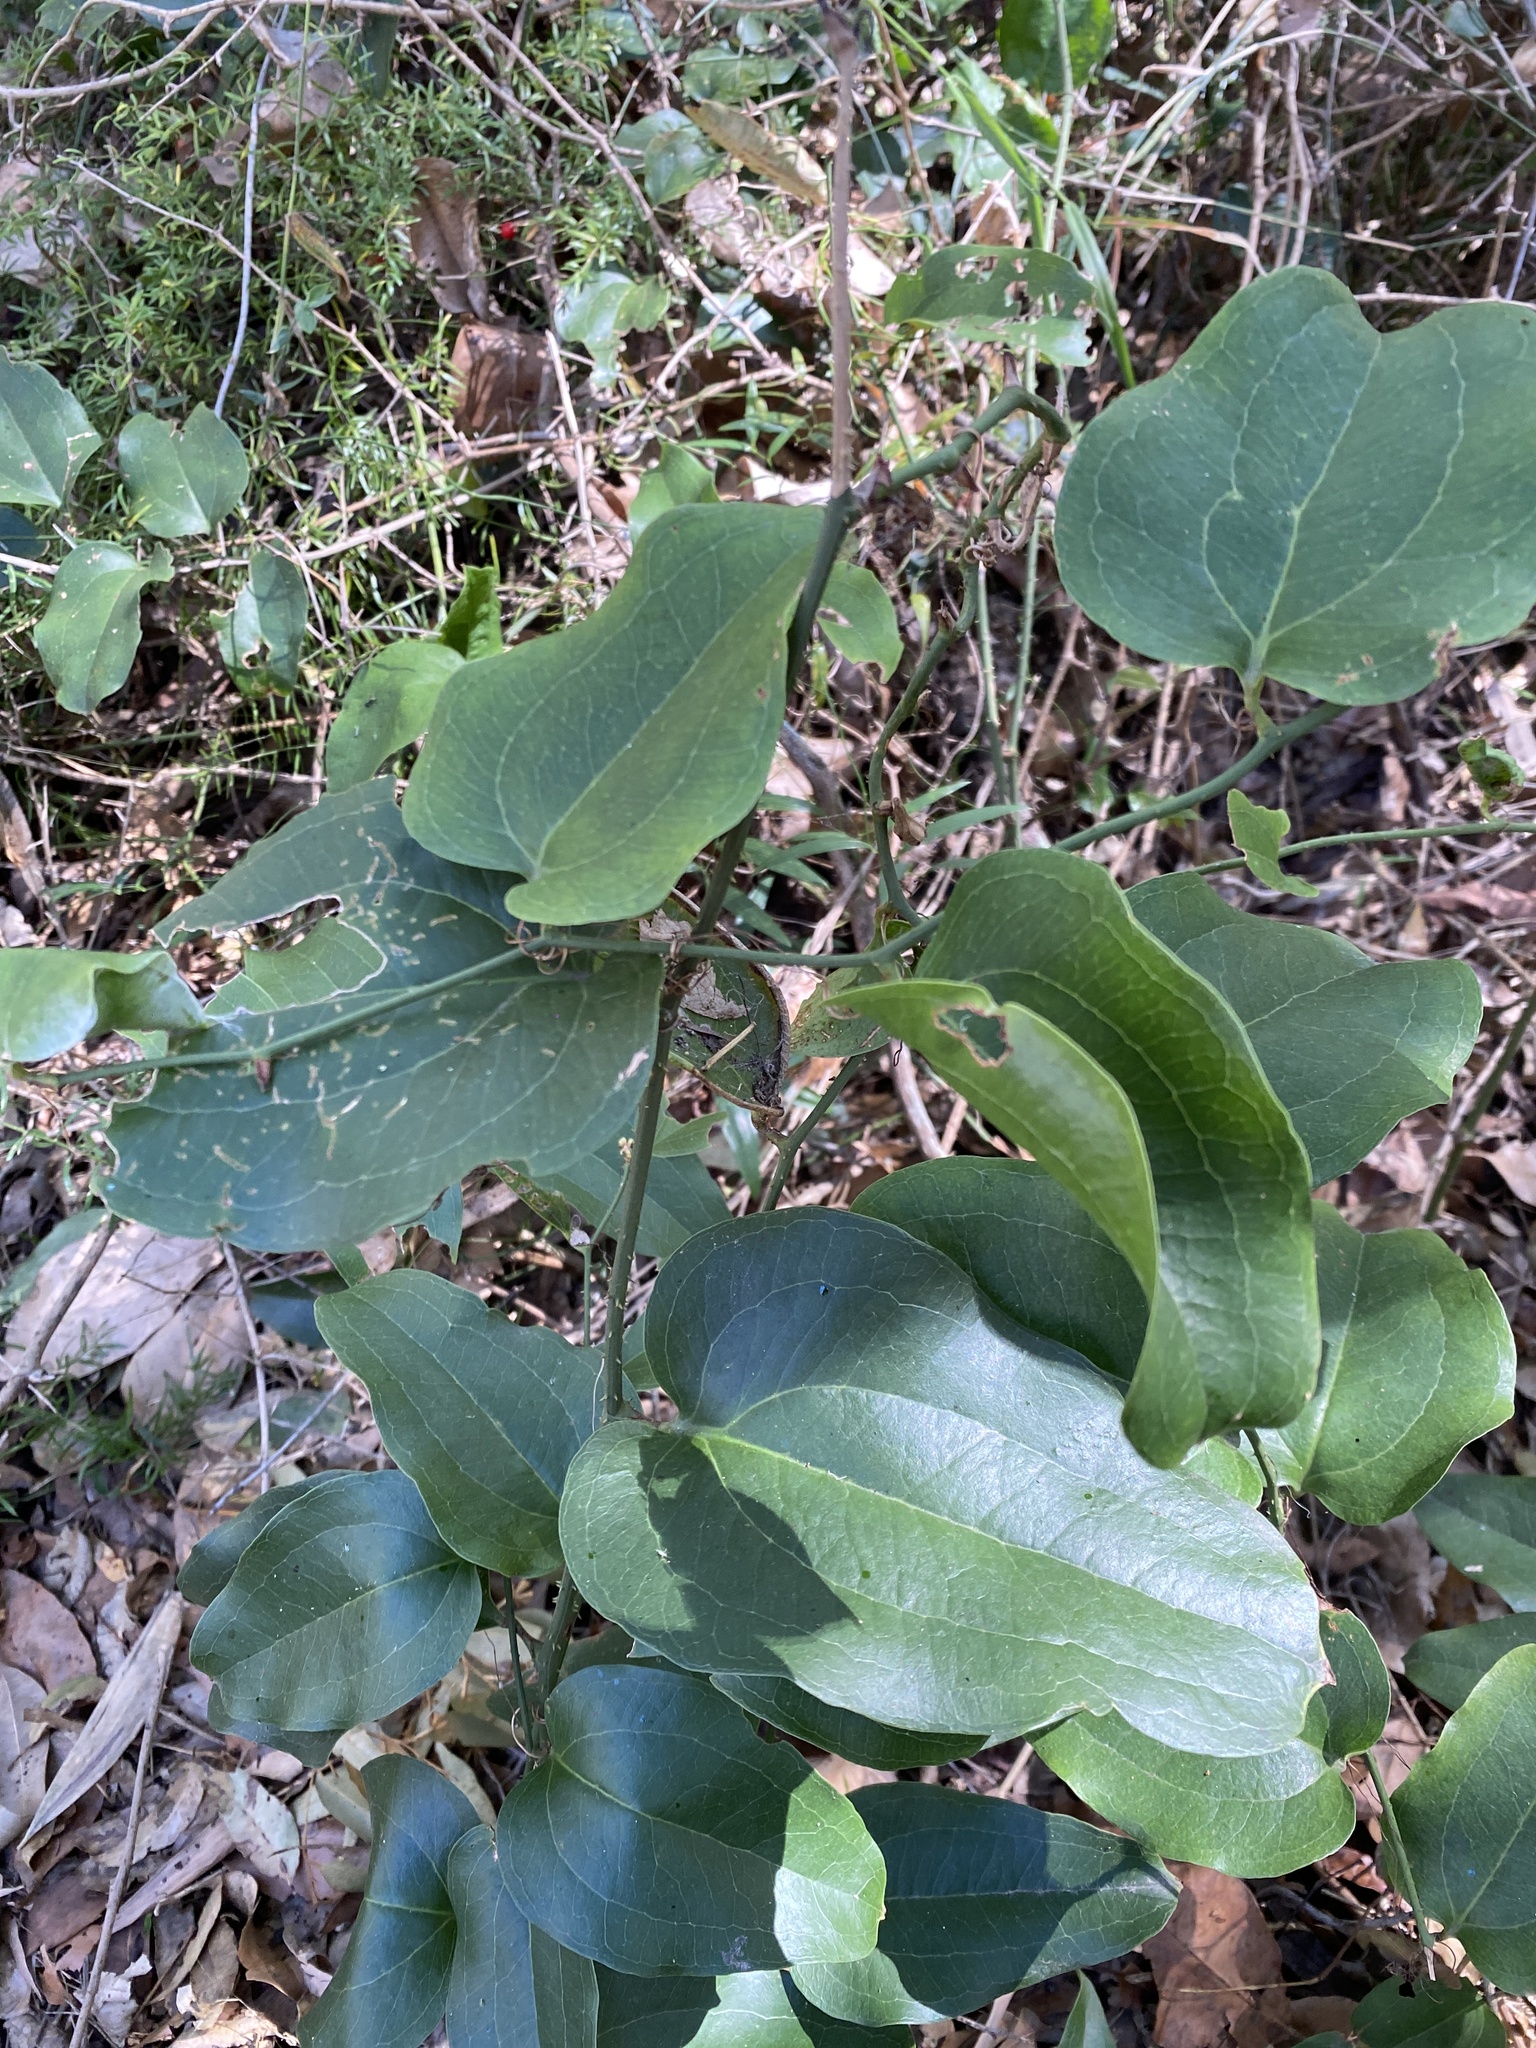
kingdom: Plantae
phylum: Tracheophyta
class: Liliopsida
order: Liliales
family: Smilacaceae
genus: Smilax
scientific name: Smilax australis
